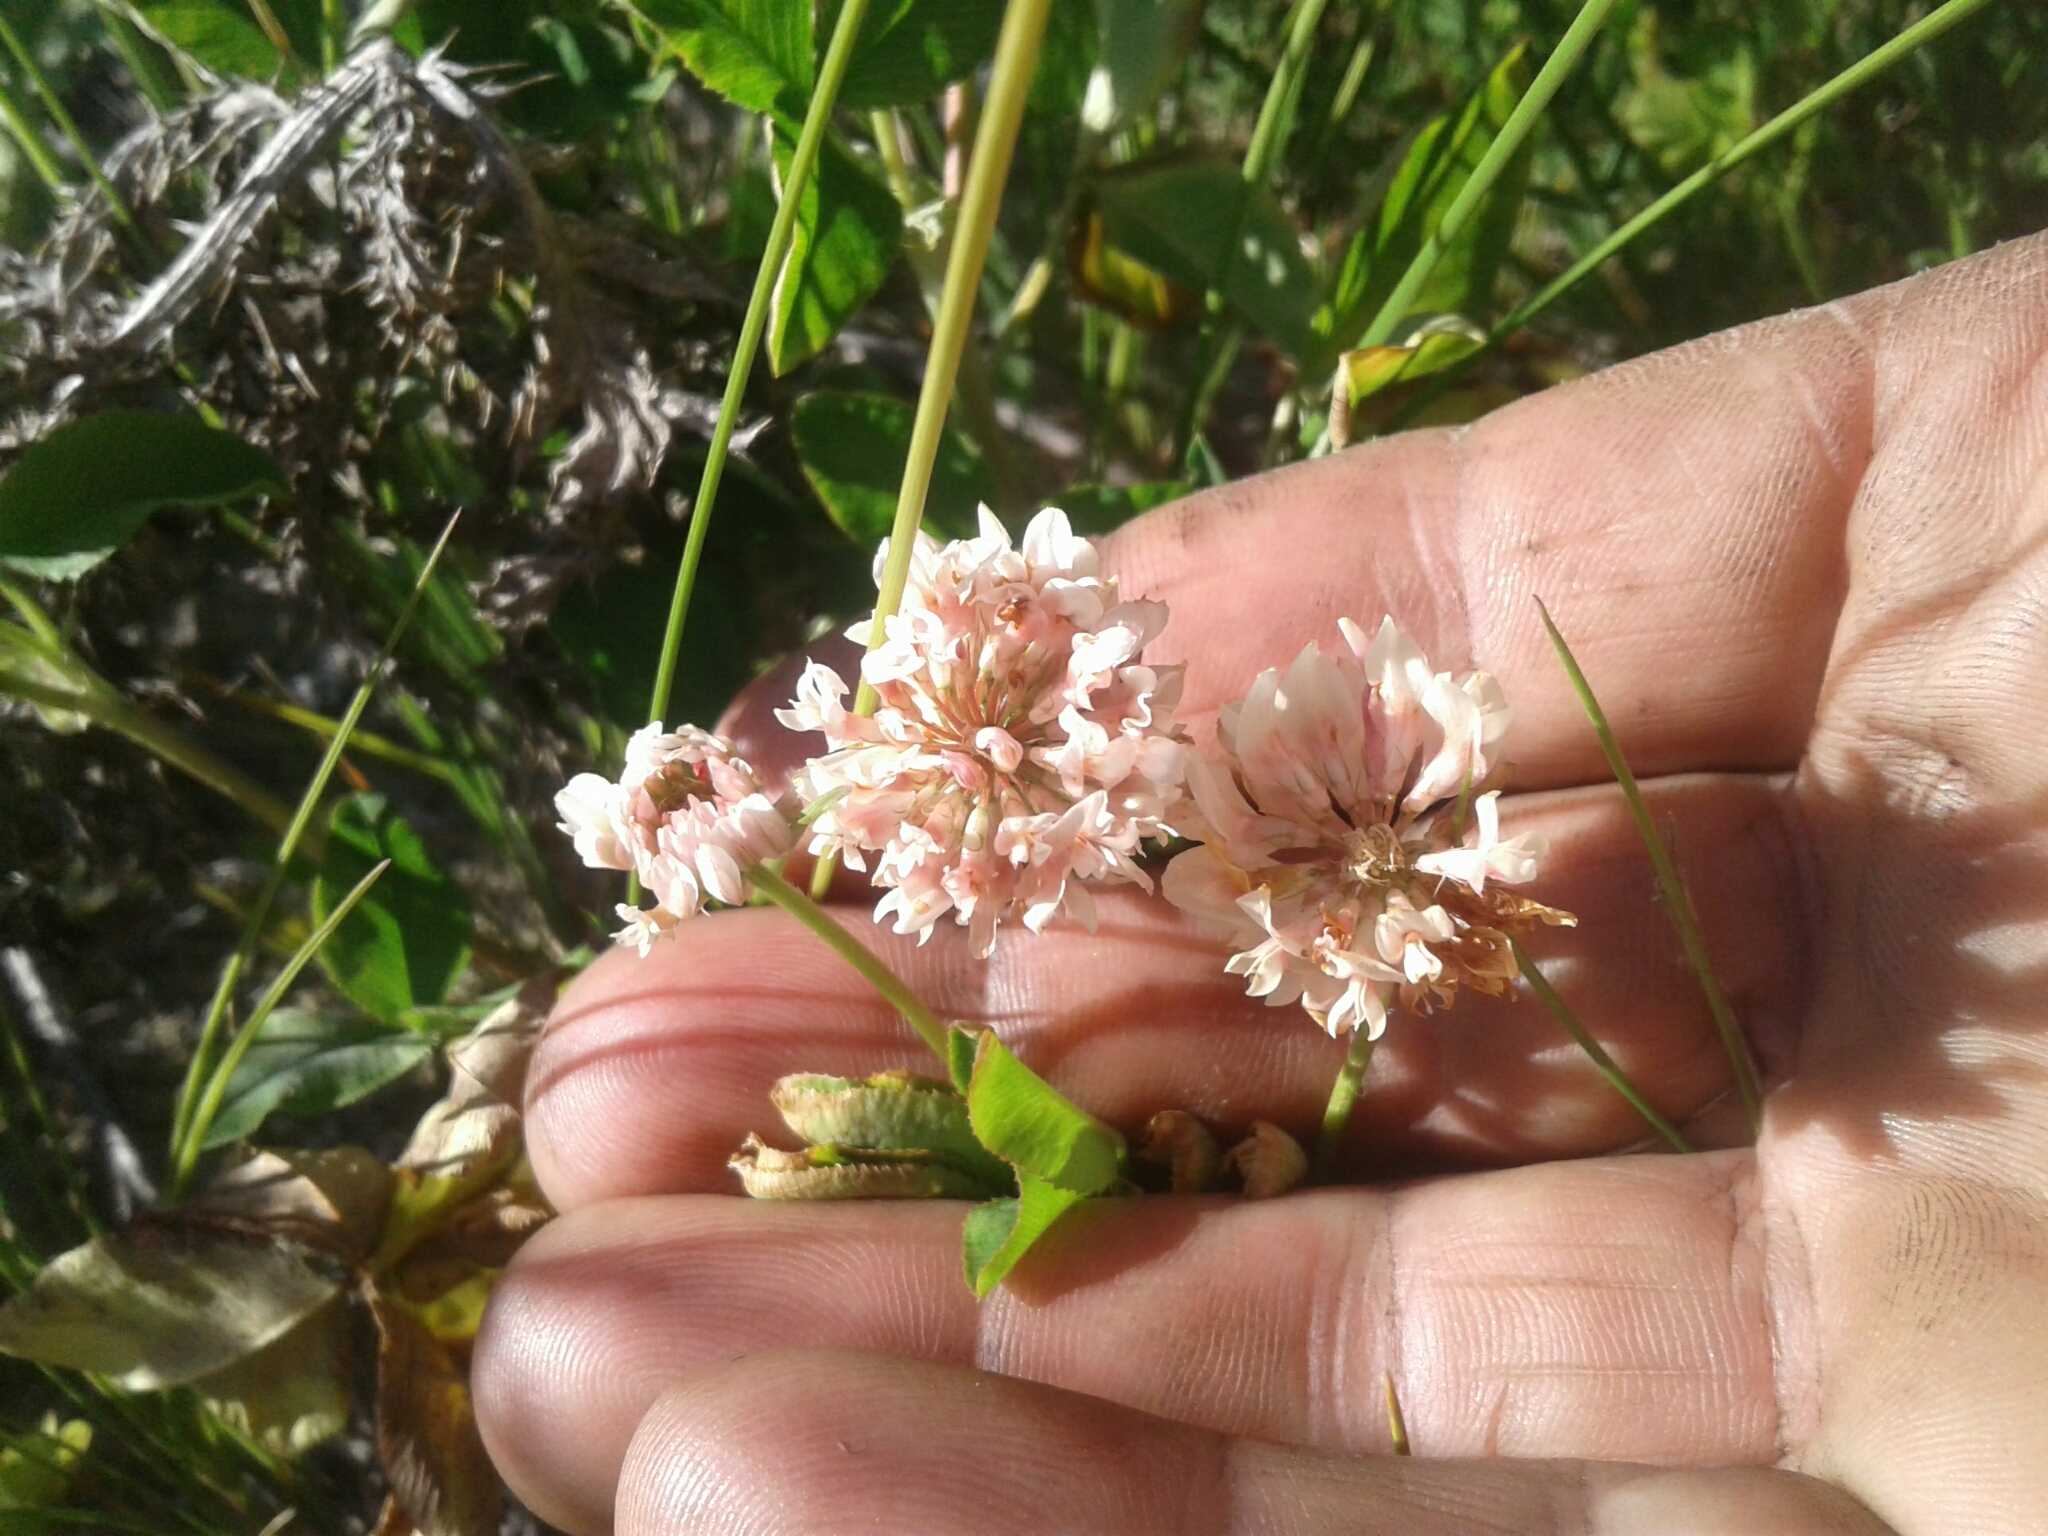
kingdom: Plantae
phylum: Tracheophyta
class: Magnoliopsida
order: Fabales
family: Fabaceae
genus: Trifolium
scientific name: Trifolium repens
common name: White clover
